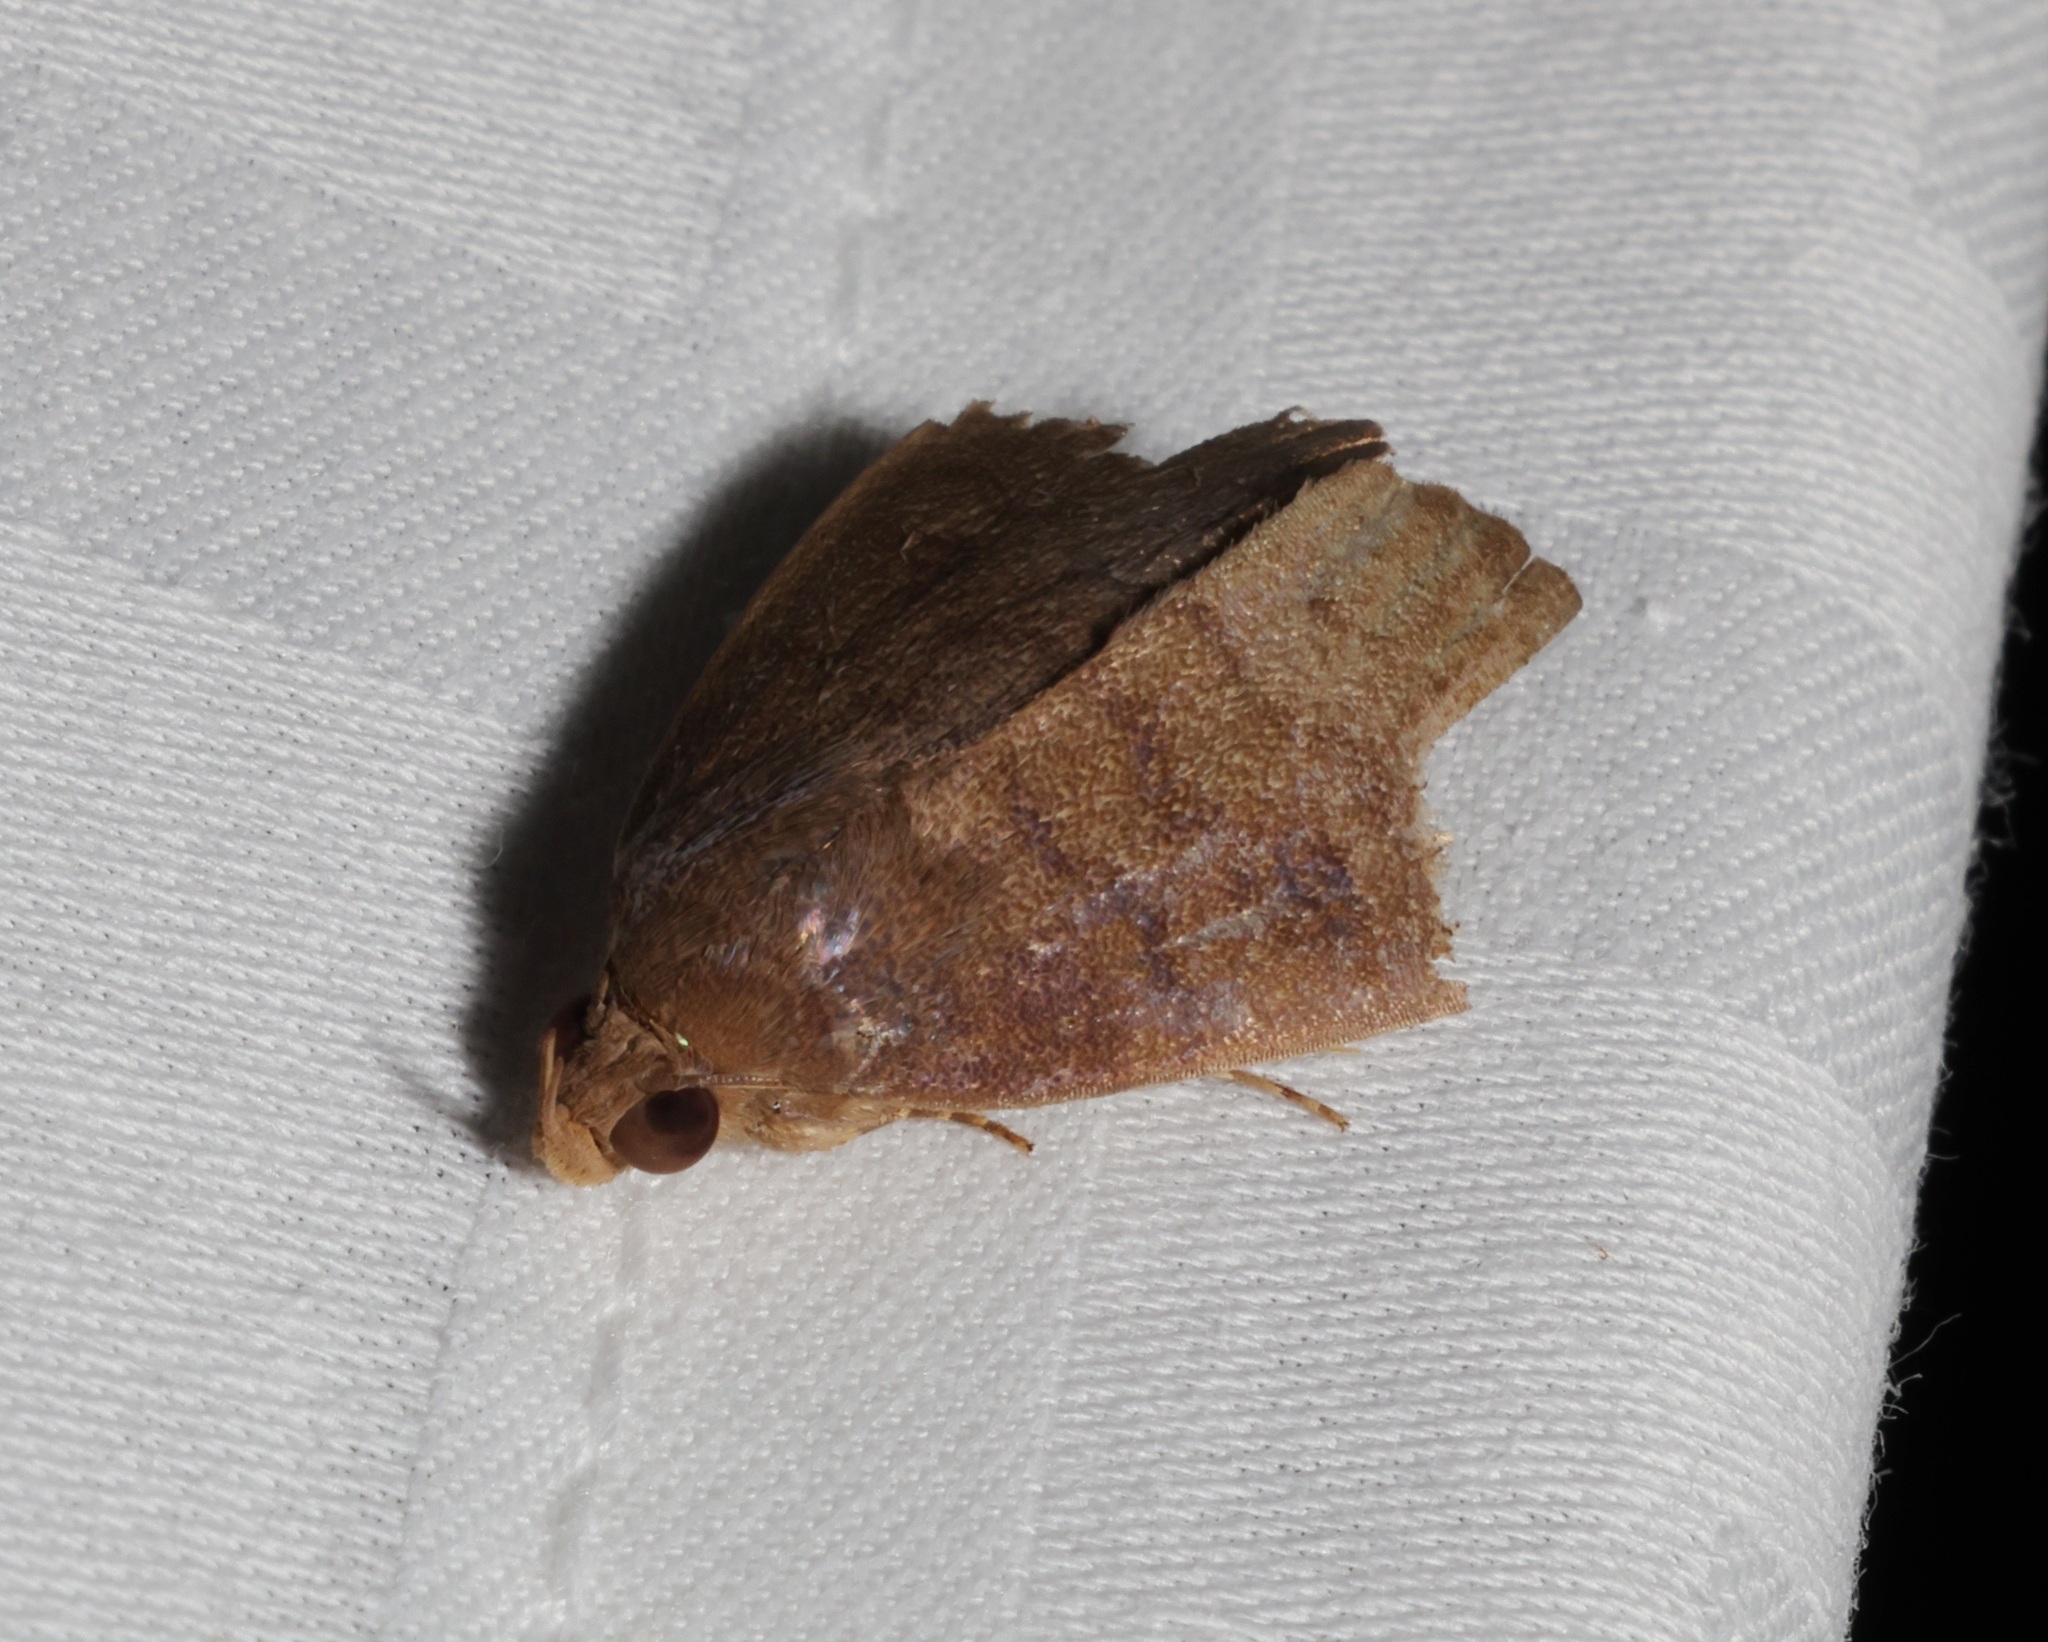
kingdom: Animalia
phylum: Arthropoda
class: Insecta
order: Lepidoptera
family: Erebidae
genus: Avitta
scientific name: Avitta fasciosa
